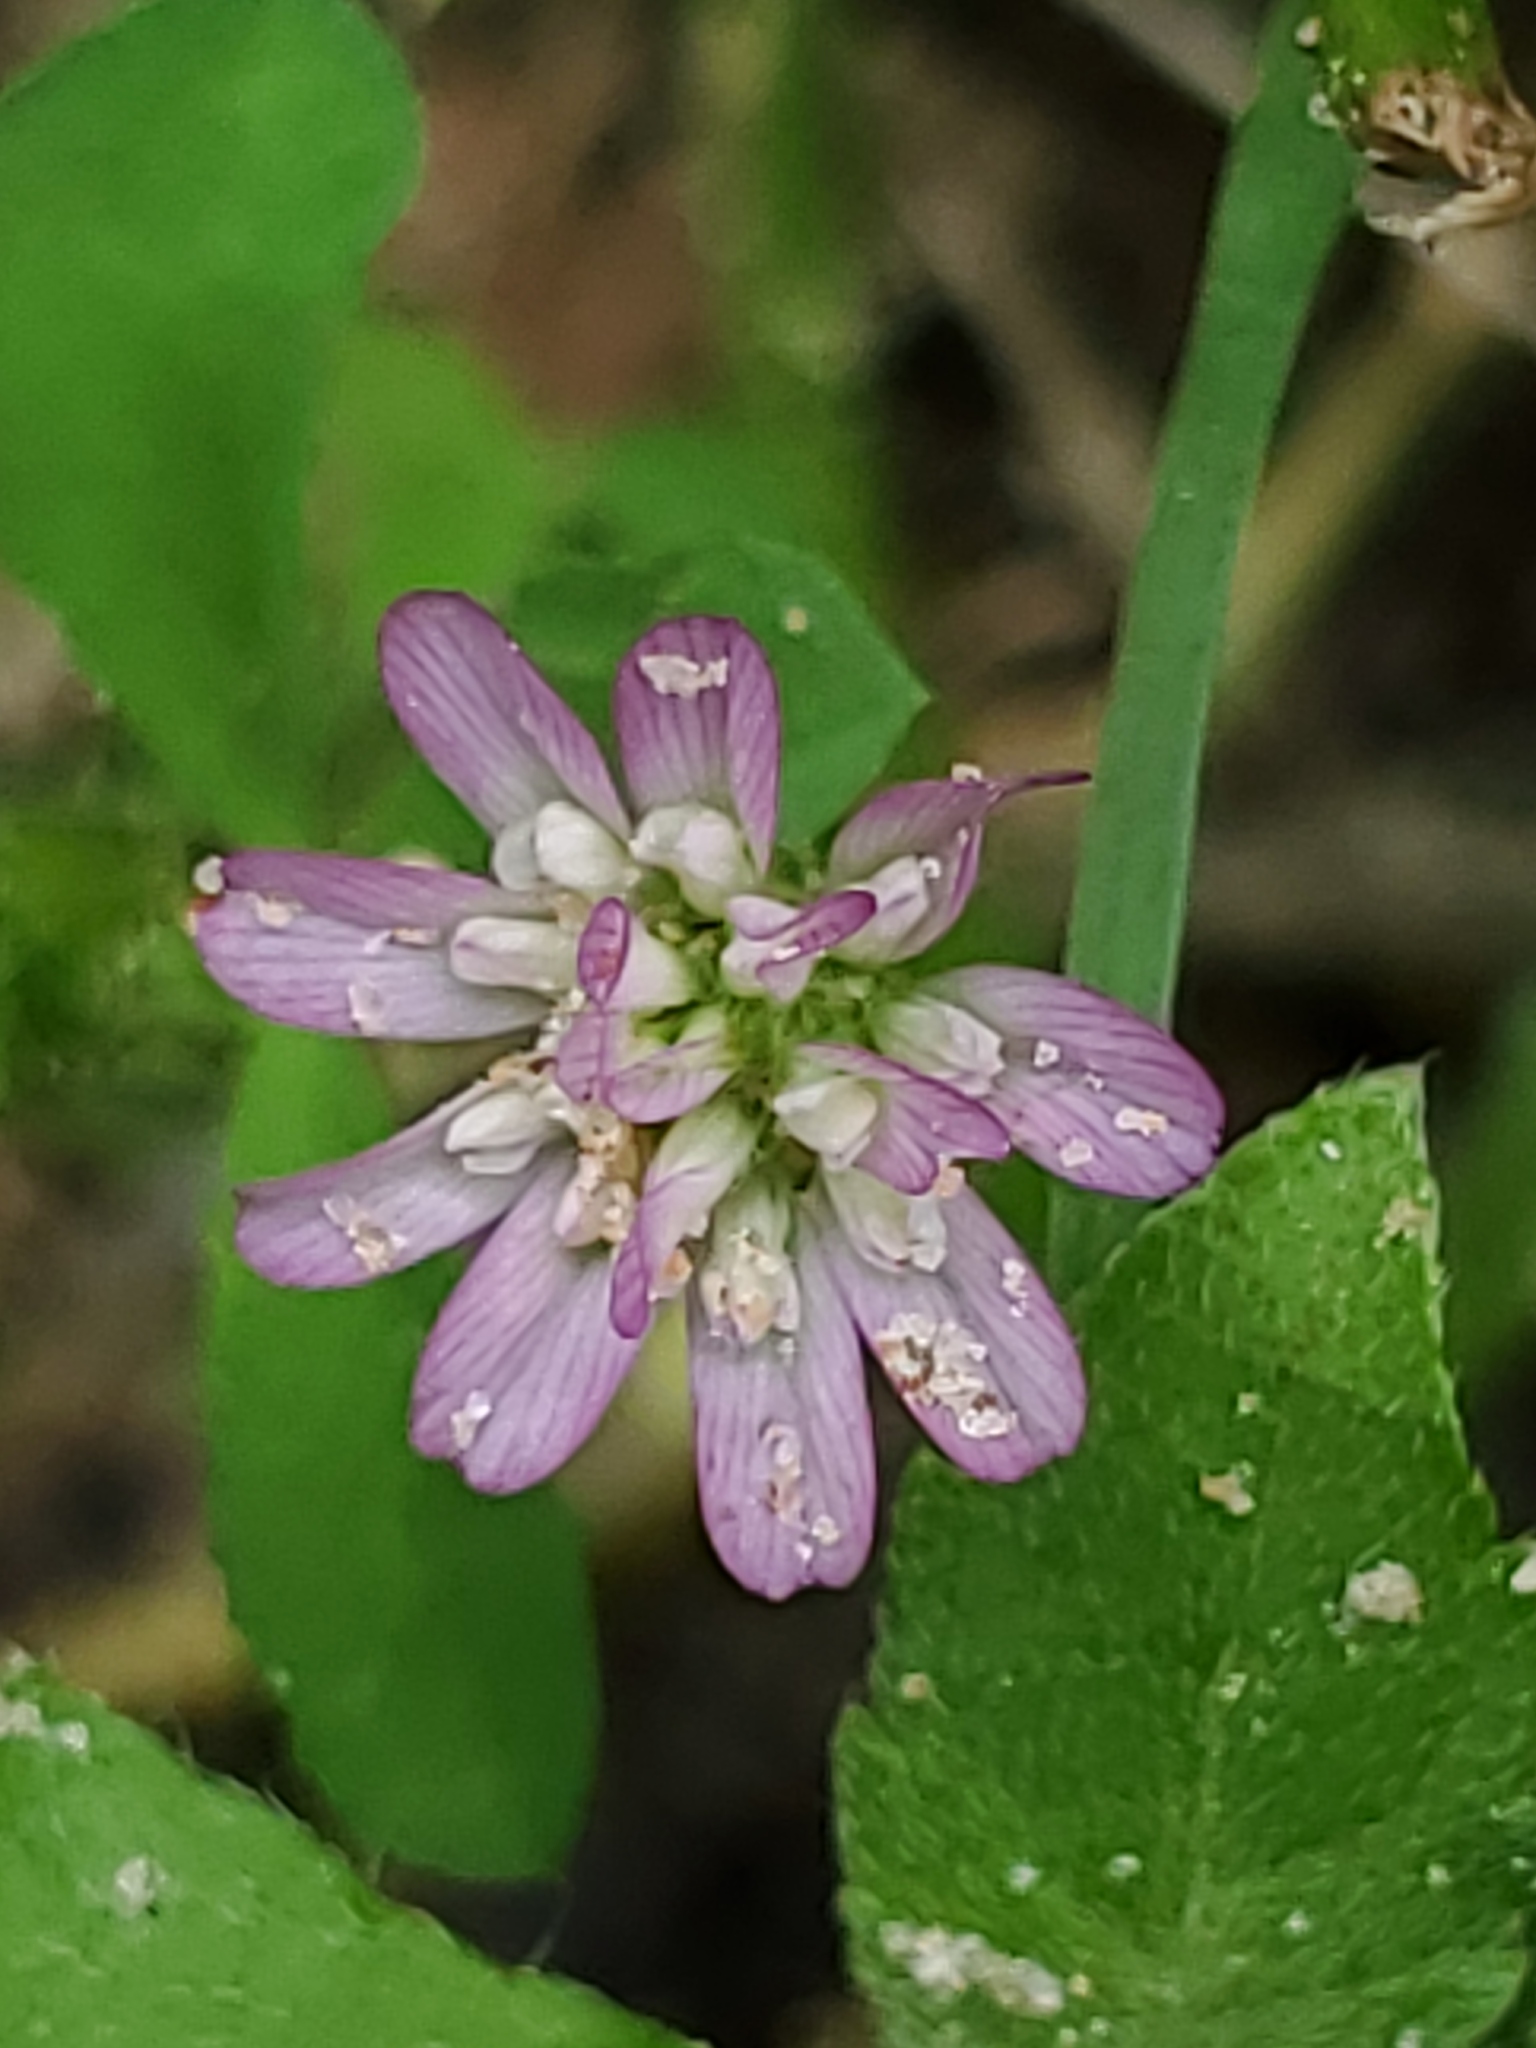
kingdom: Plantae
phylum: Tracheophyta
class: Magnoliopsida
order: Fabales
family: Fabaceae
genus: Trifolium
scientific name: Trifolium resupinatum
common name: Reversed clover
